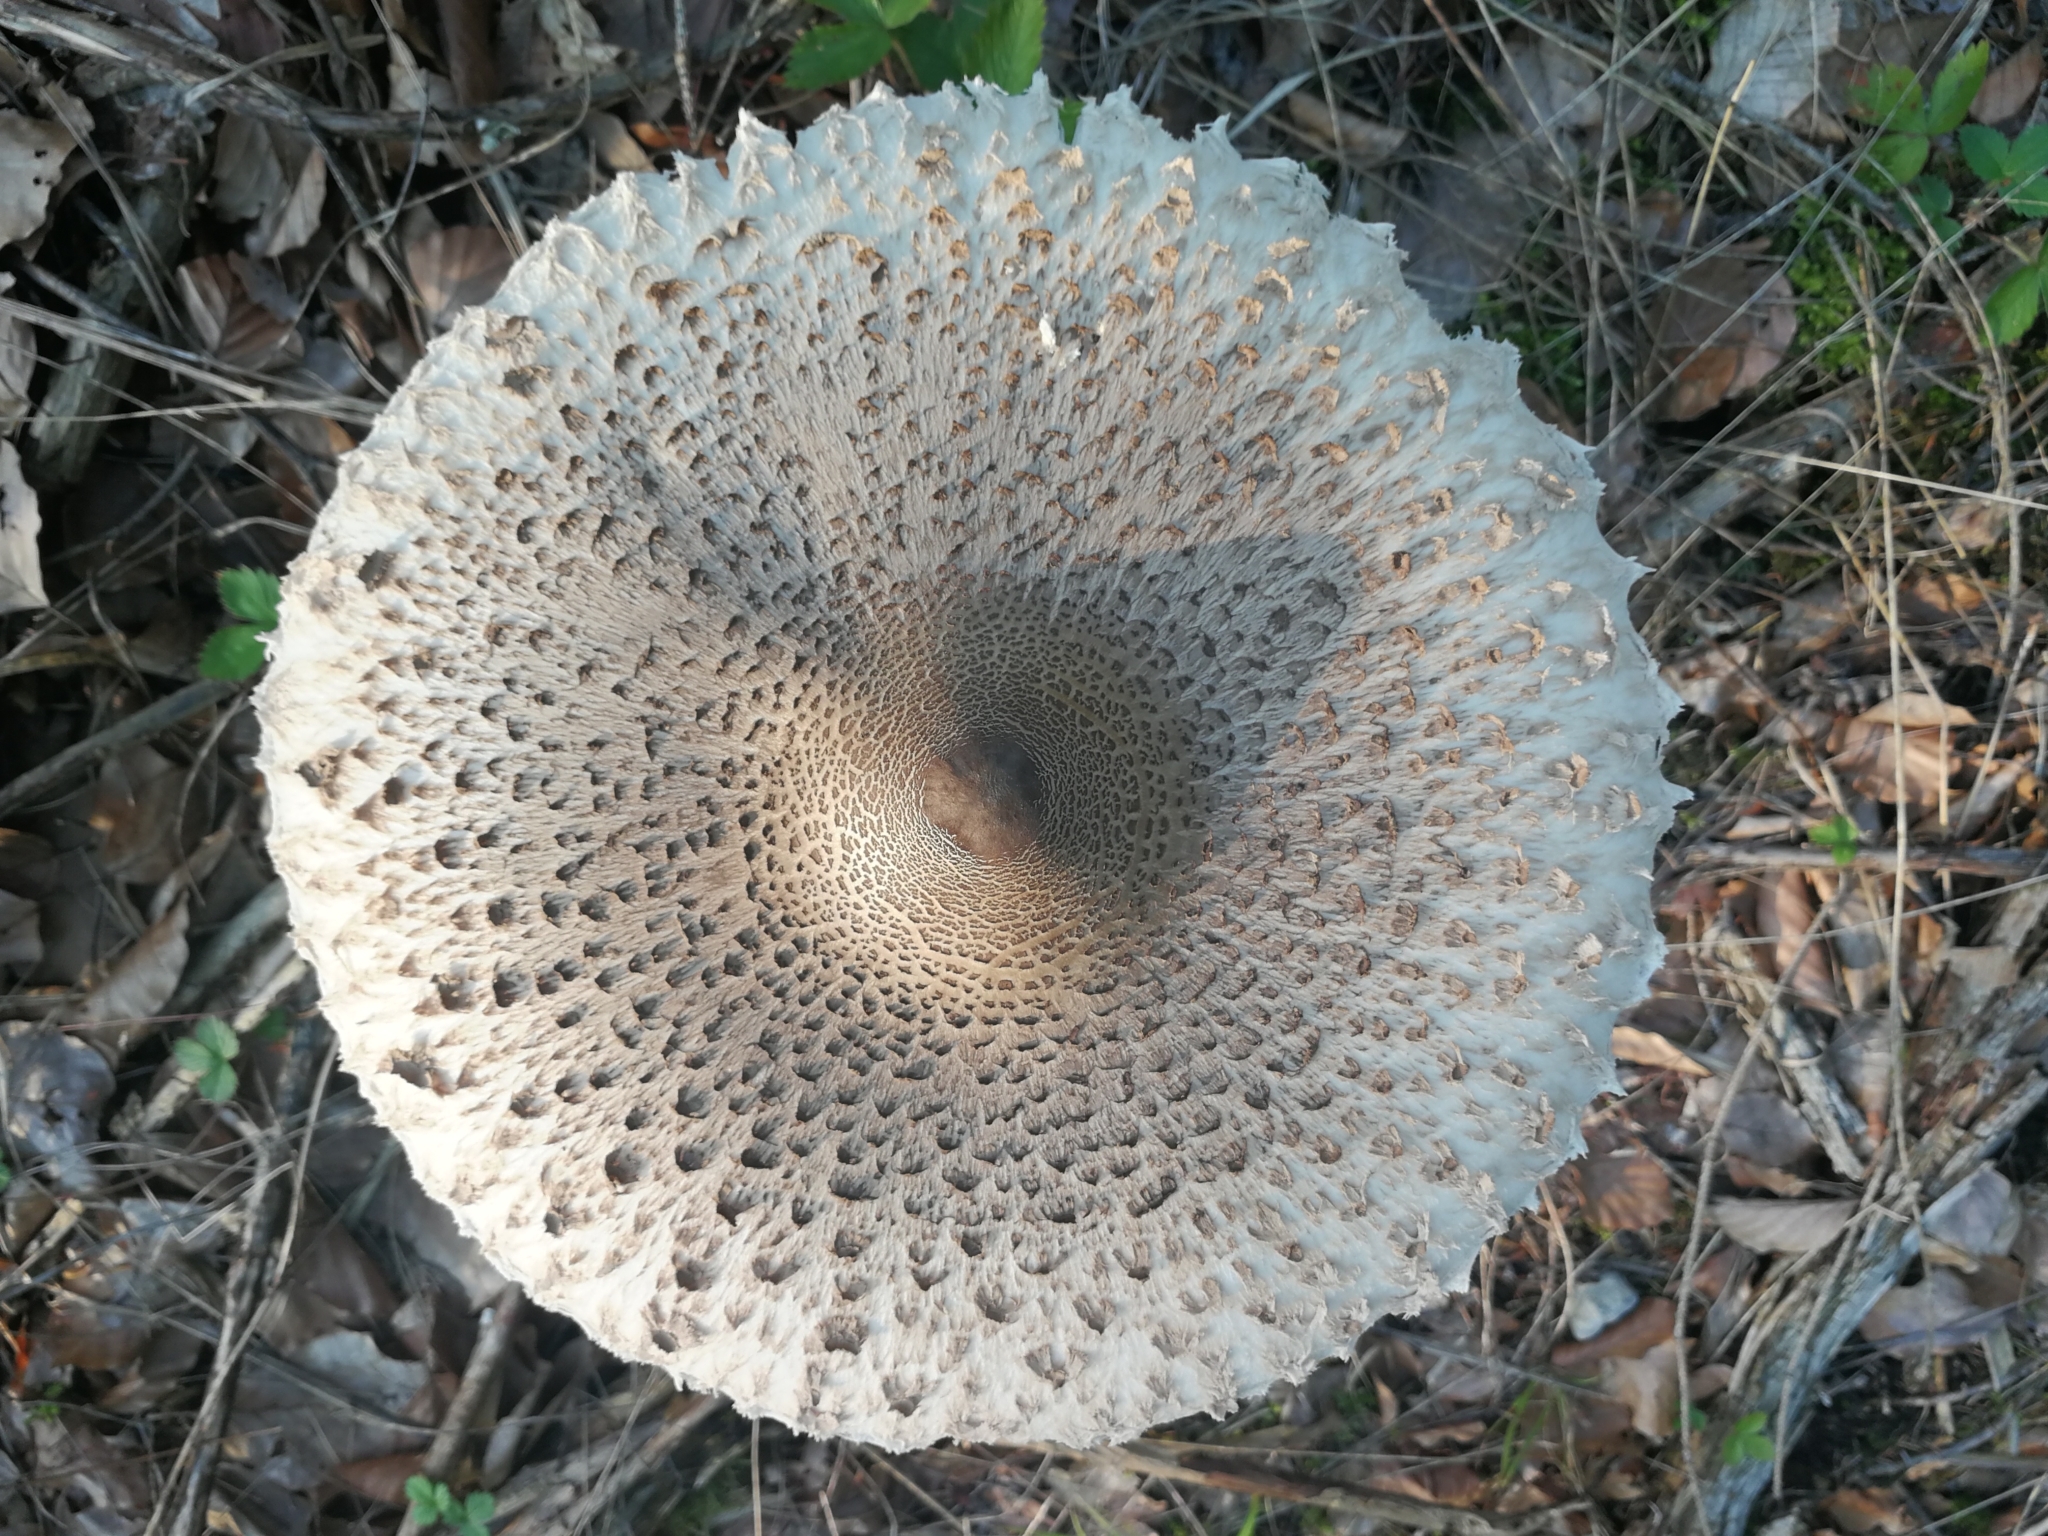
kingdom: Fungi
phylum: Basidiomycota
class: Agaricomycetes
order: Agaricales
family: Agaricaceae
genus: Macrolepiota
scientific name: Macrolepiota procera
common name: Parasol
